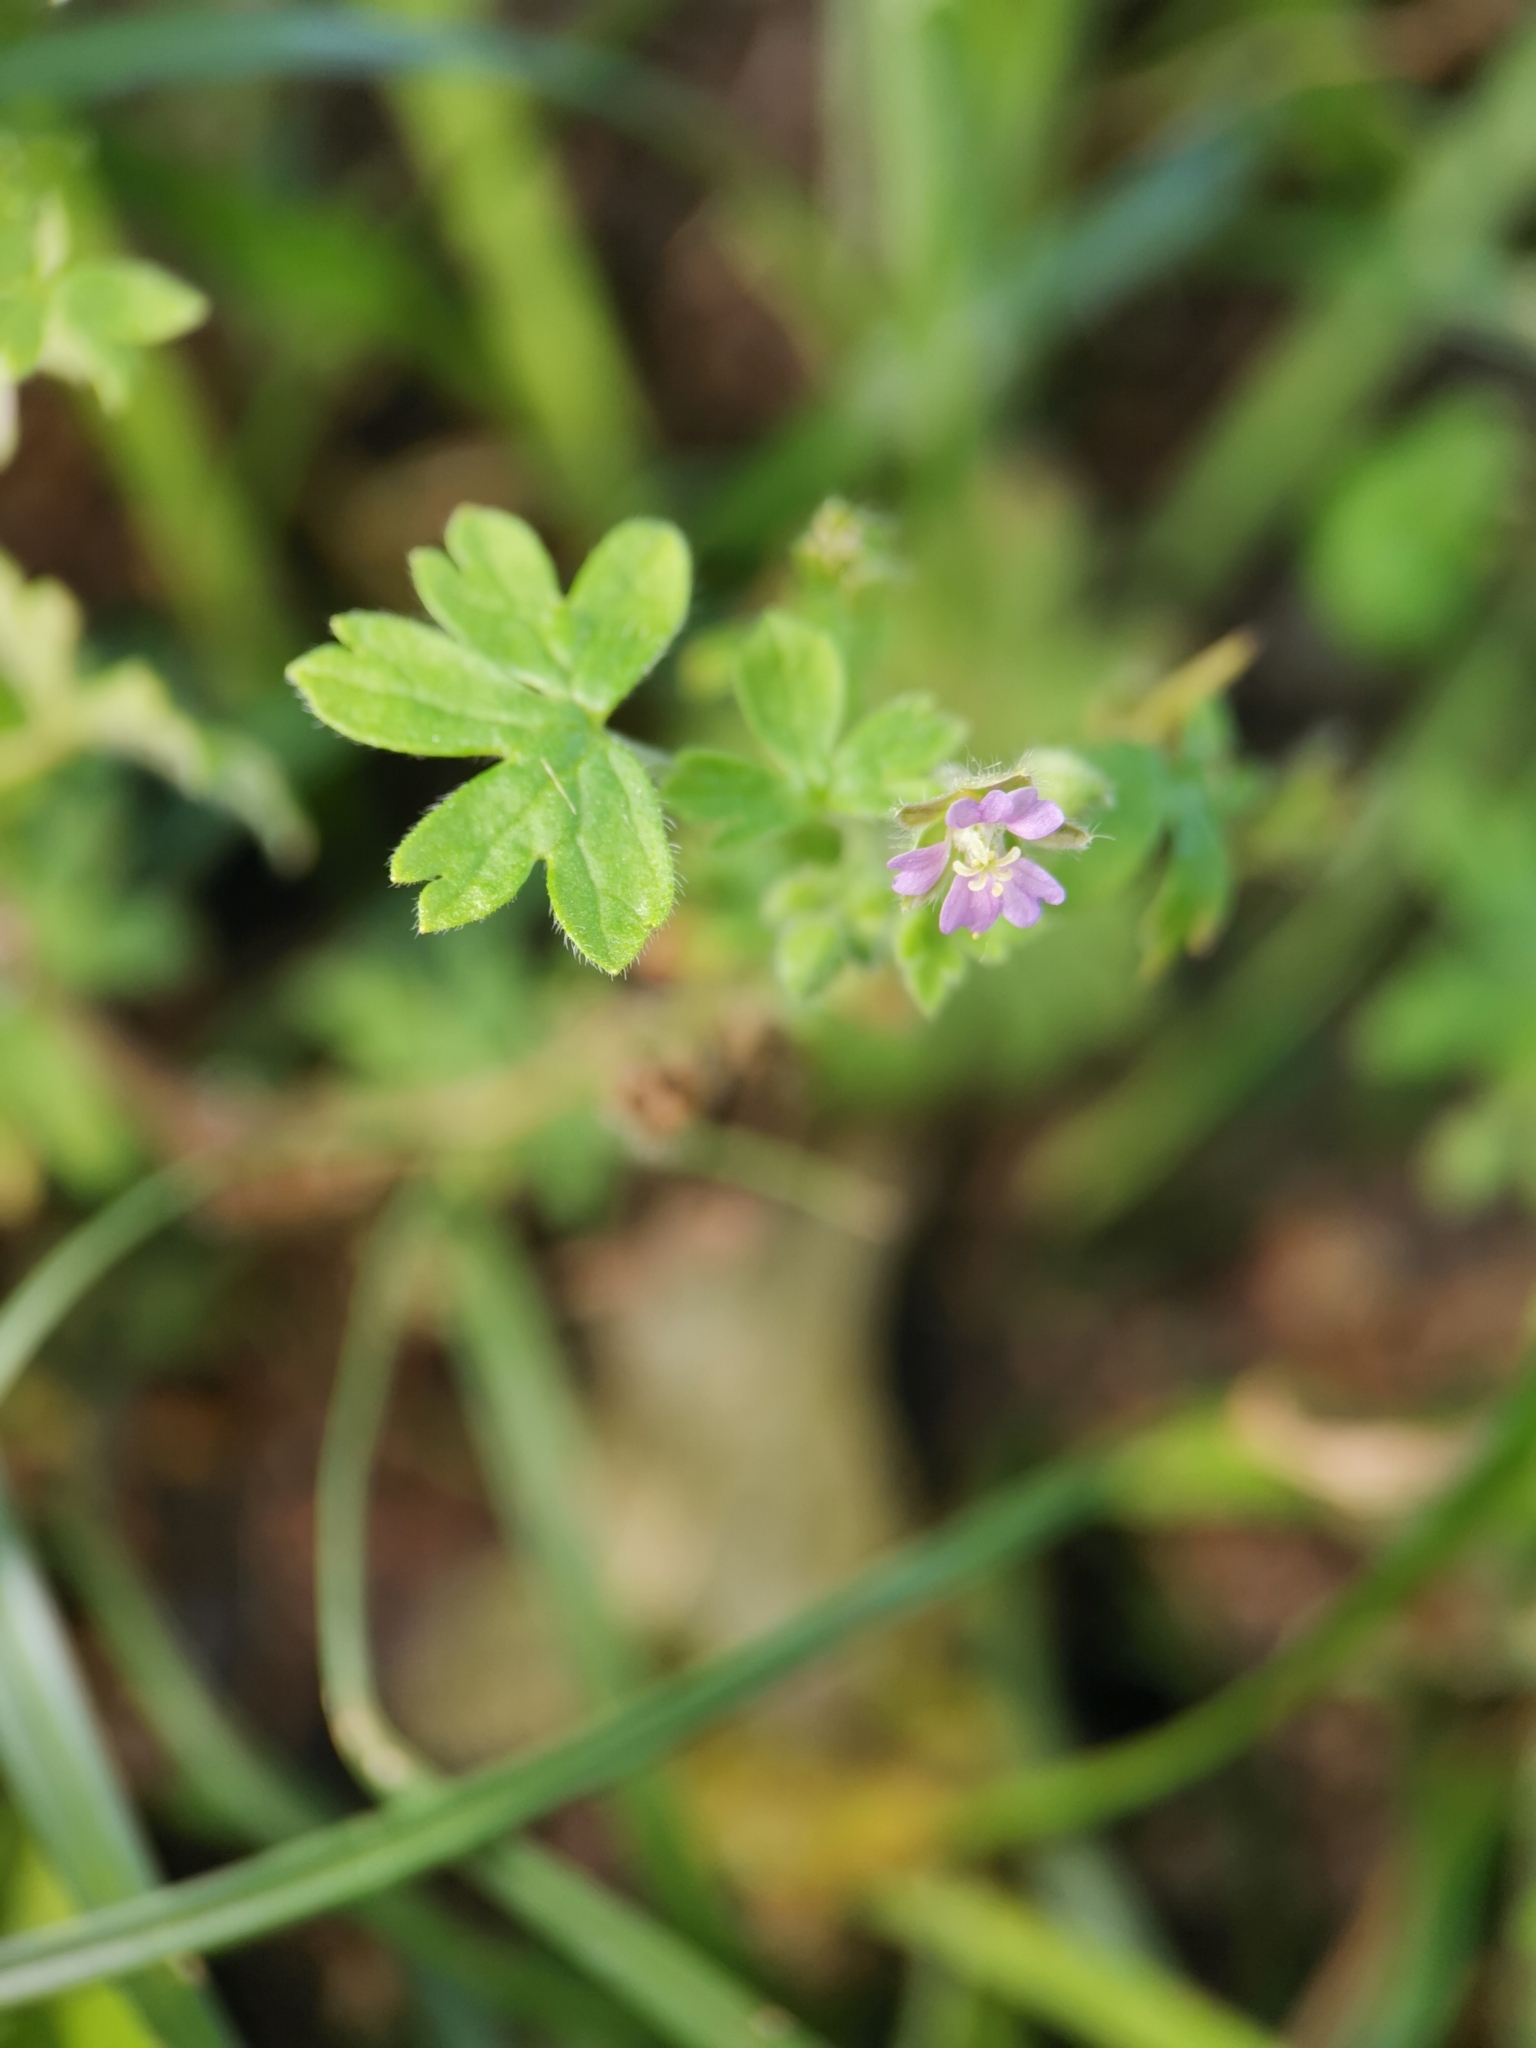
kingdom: Plantae
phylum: Tracheophyta
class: Magnoliopsida
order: Geraniales
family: Geraniaceae
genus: Geranium
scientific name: Geranium pusillum
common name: Small geranium
